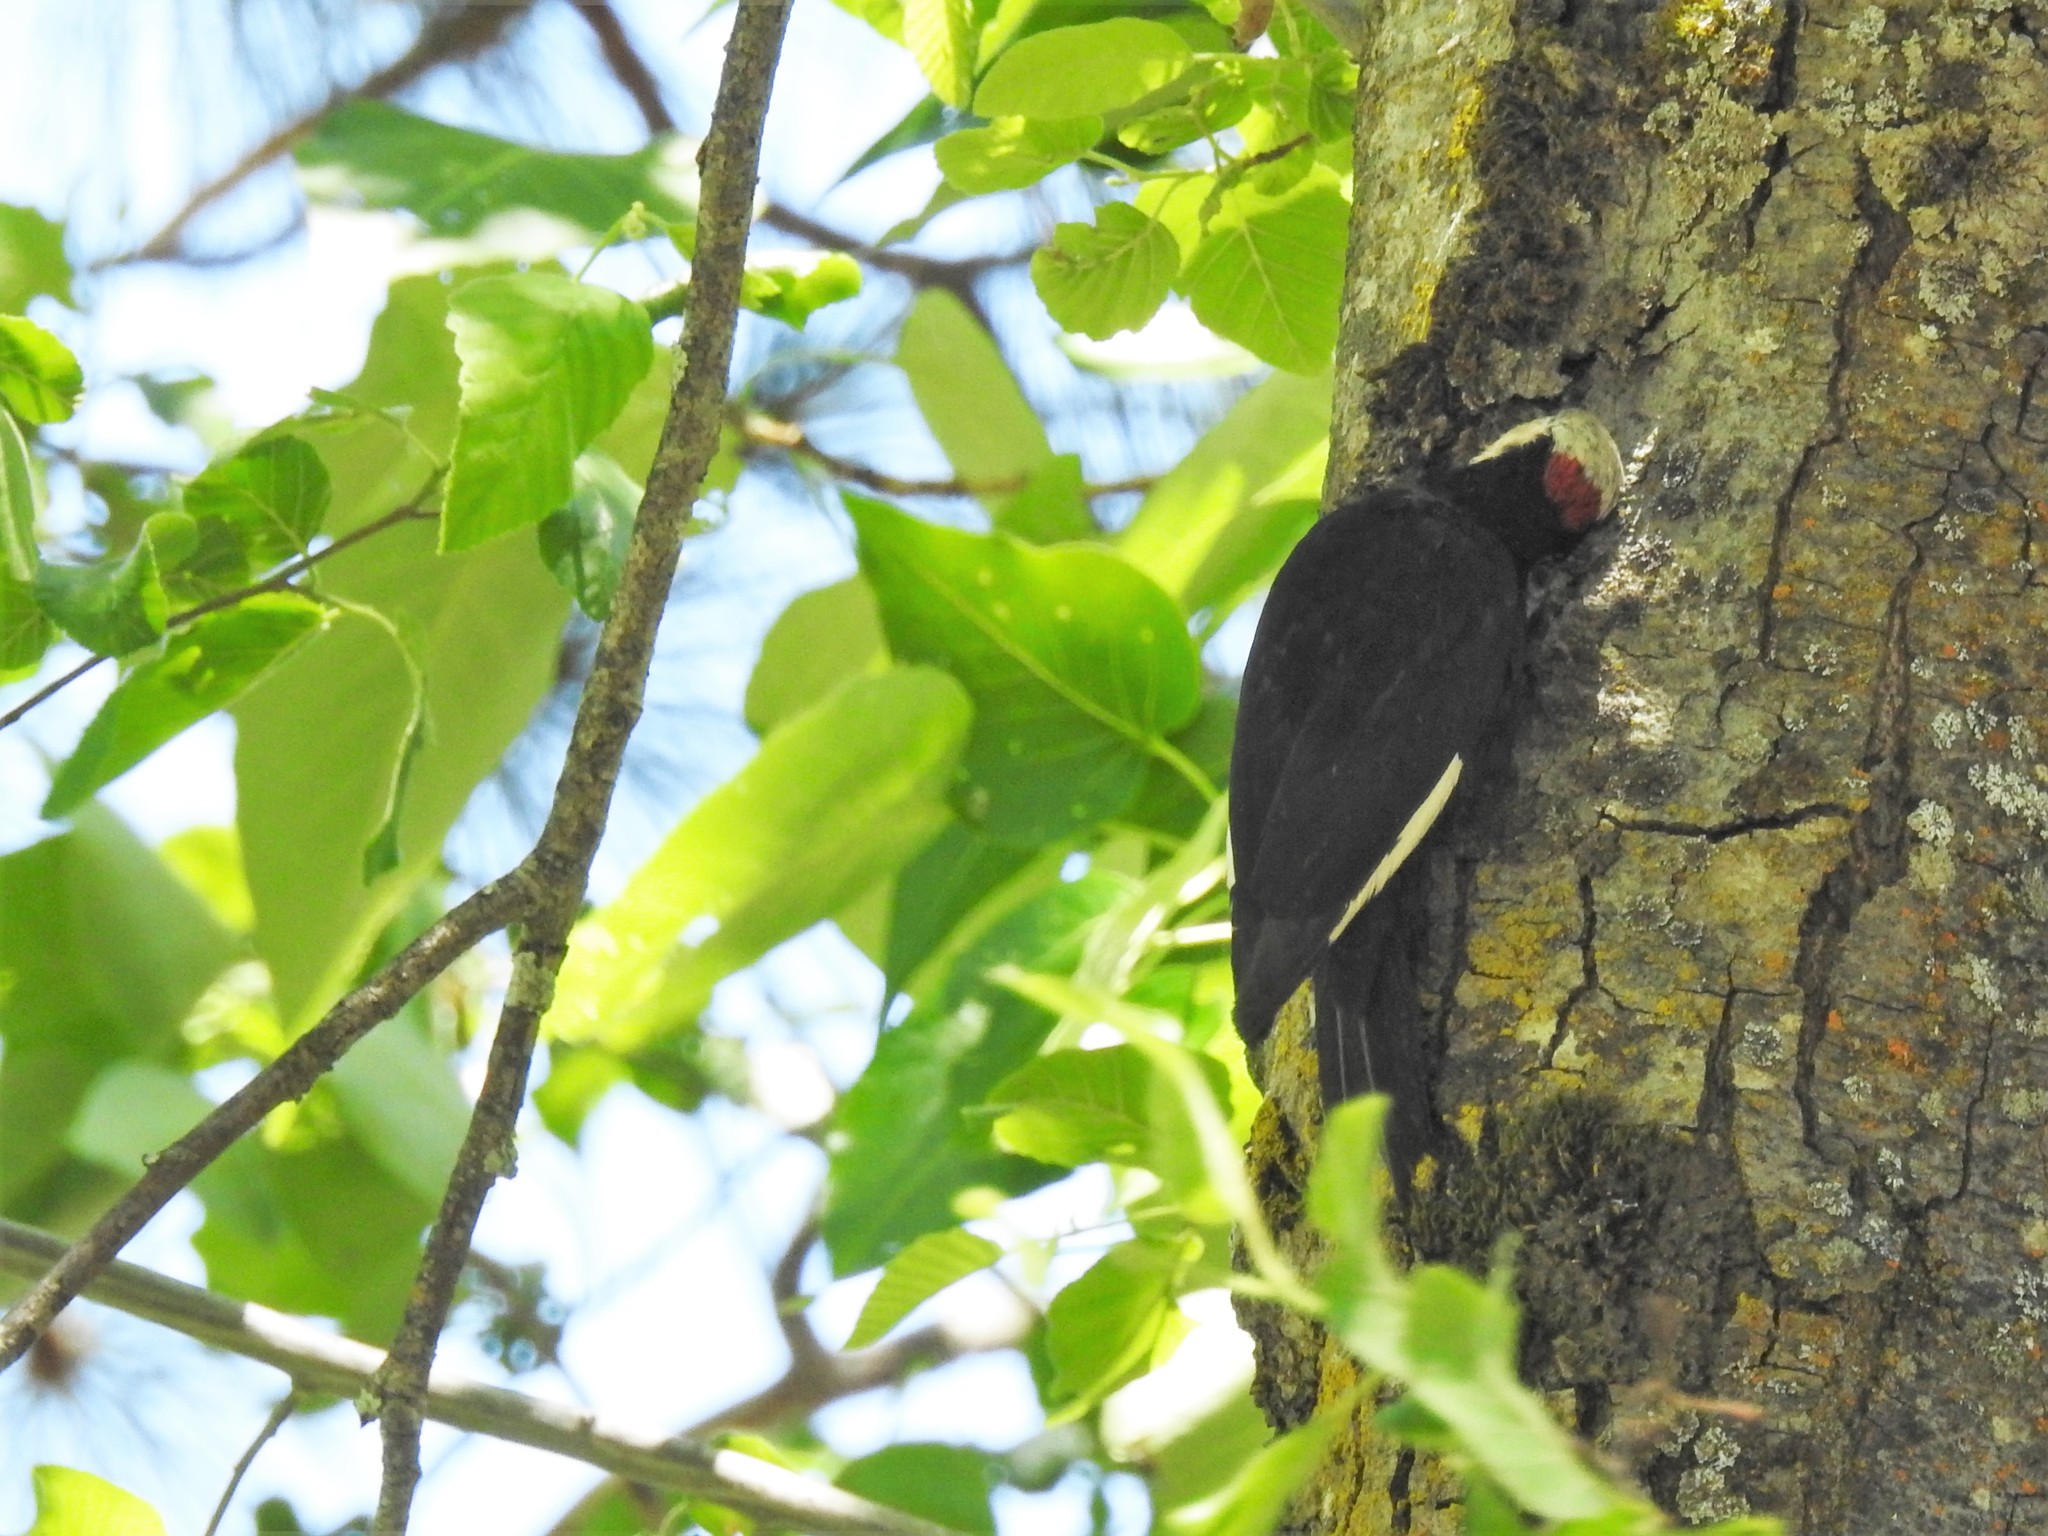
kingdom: Animalia
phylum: Chordata
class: Aves
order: Piciformes
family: Picidae
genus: Leuconotopicus
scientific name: Leuconotopicus albolarvatus
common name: White-headed woodpecker
